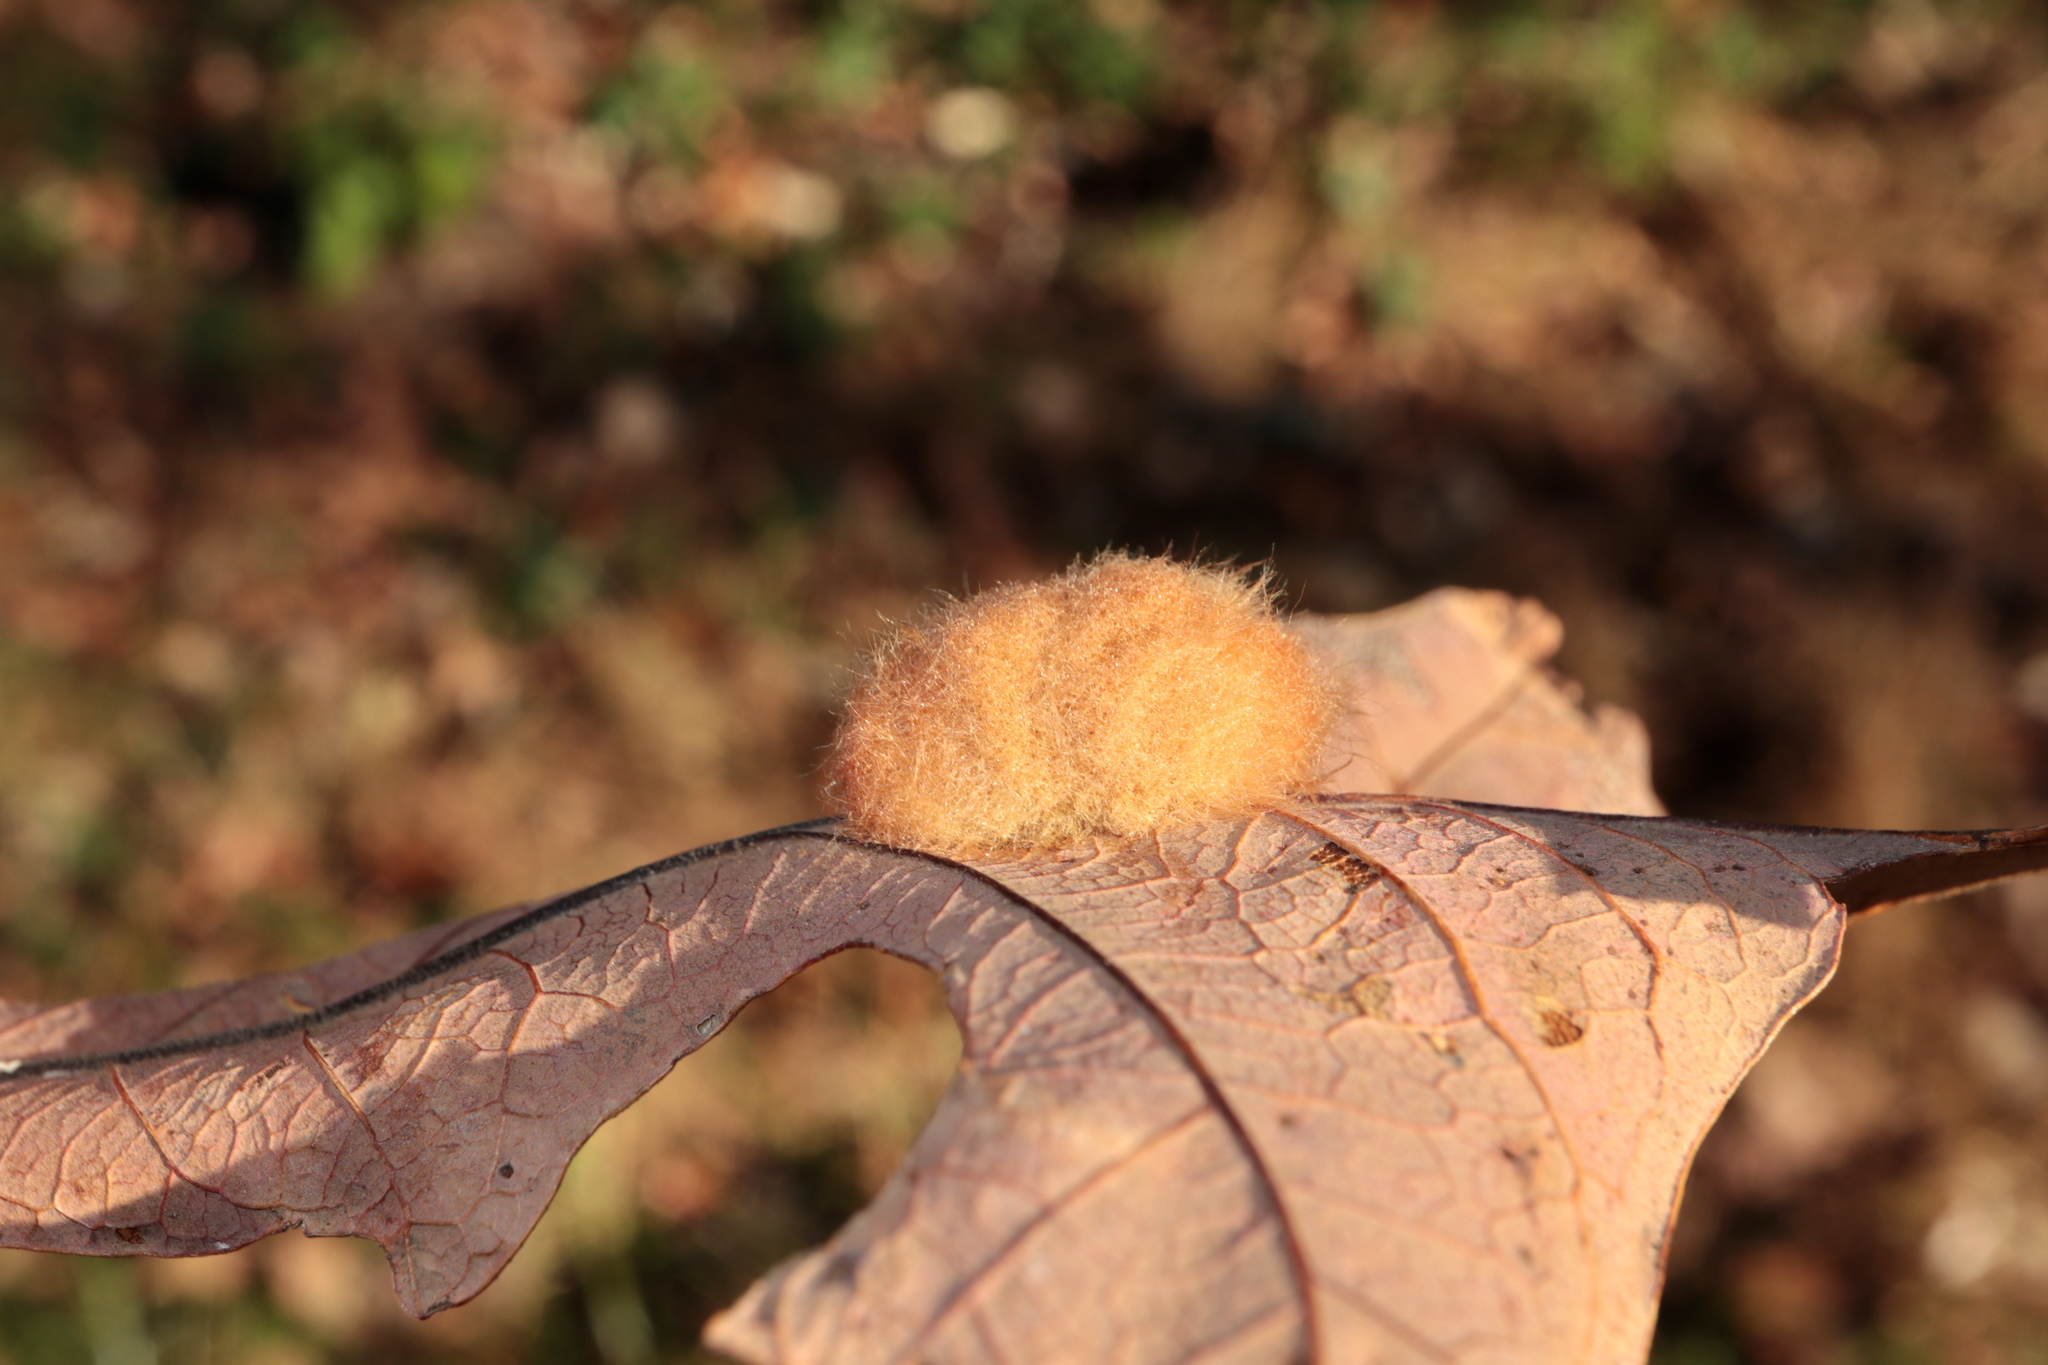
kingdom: Animalia
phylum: Arthropoda
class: Insecta
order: Hymenoptera
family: Cynipidae
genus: Andricus
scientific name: Andricus Druon pattoni
